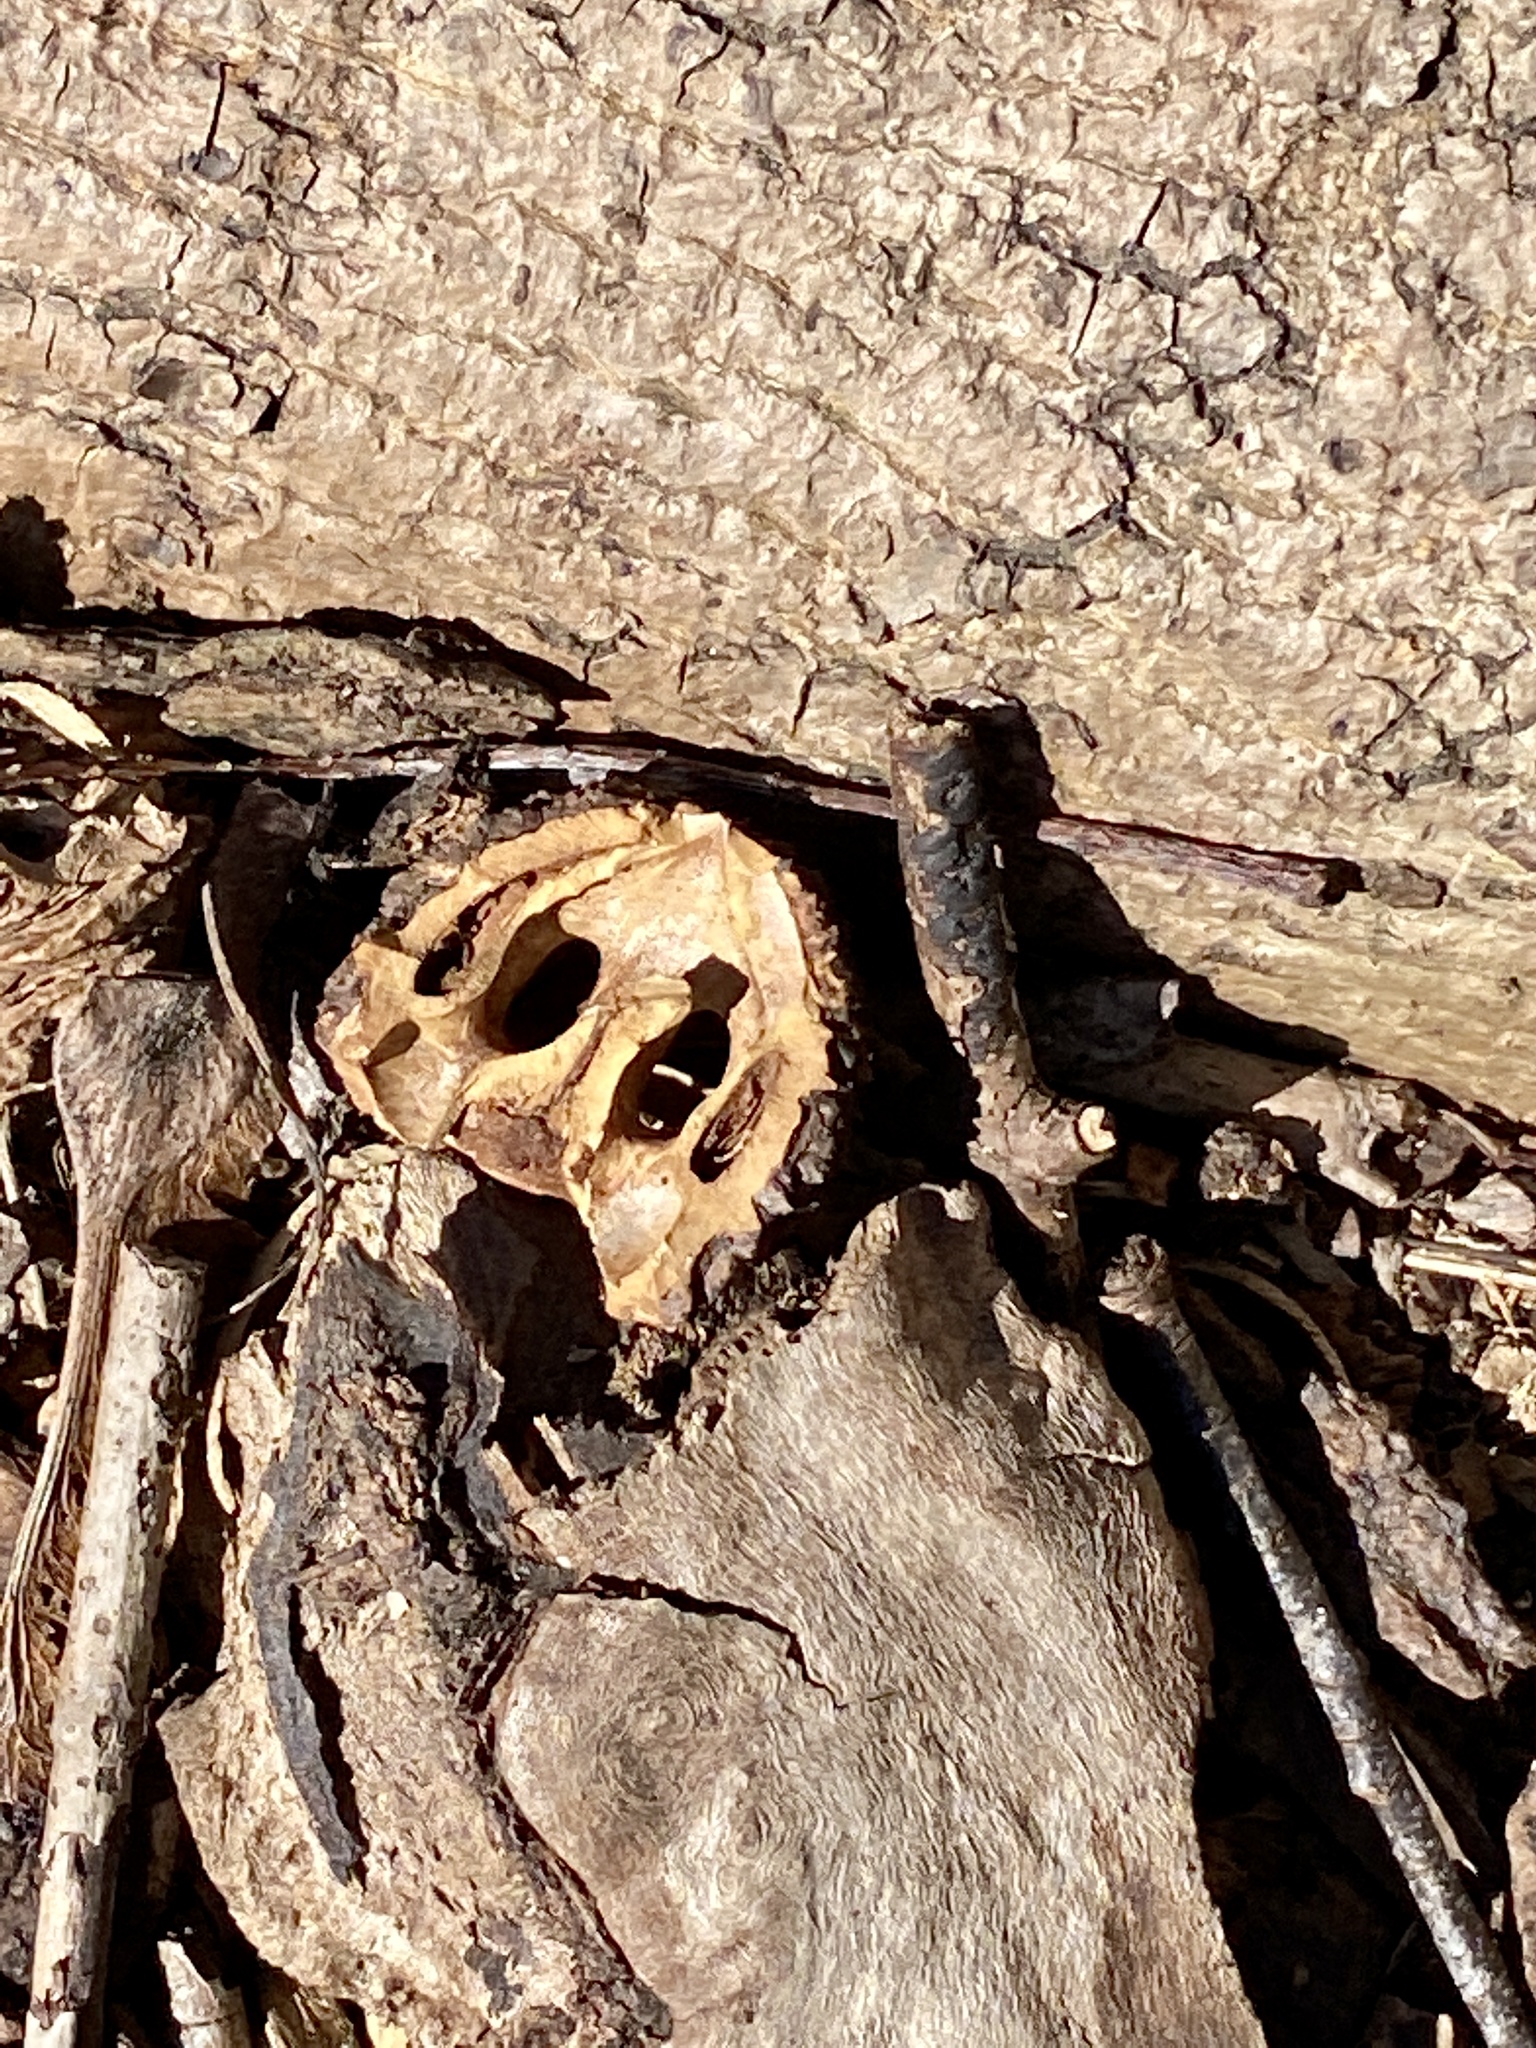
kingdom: Plantae
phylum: Tracheophyta
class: Magnoliopsida
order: Fagales
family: Juglandaceae
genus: Juglans
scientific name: Juglans nigra
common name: Black walnut
